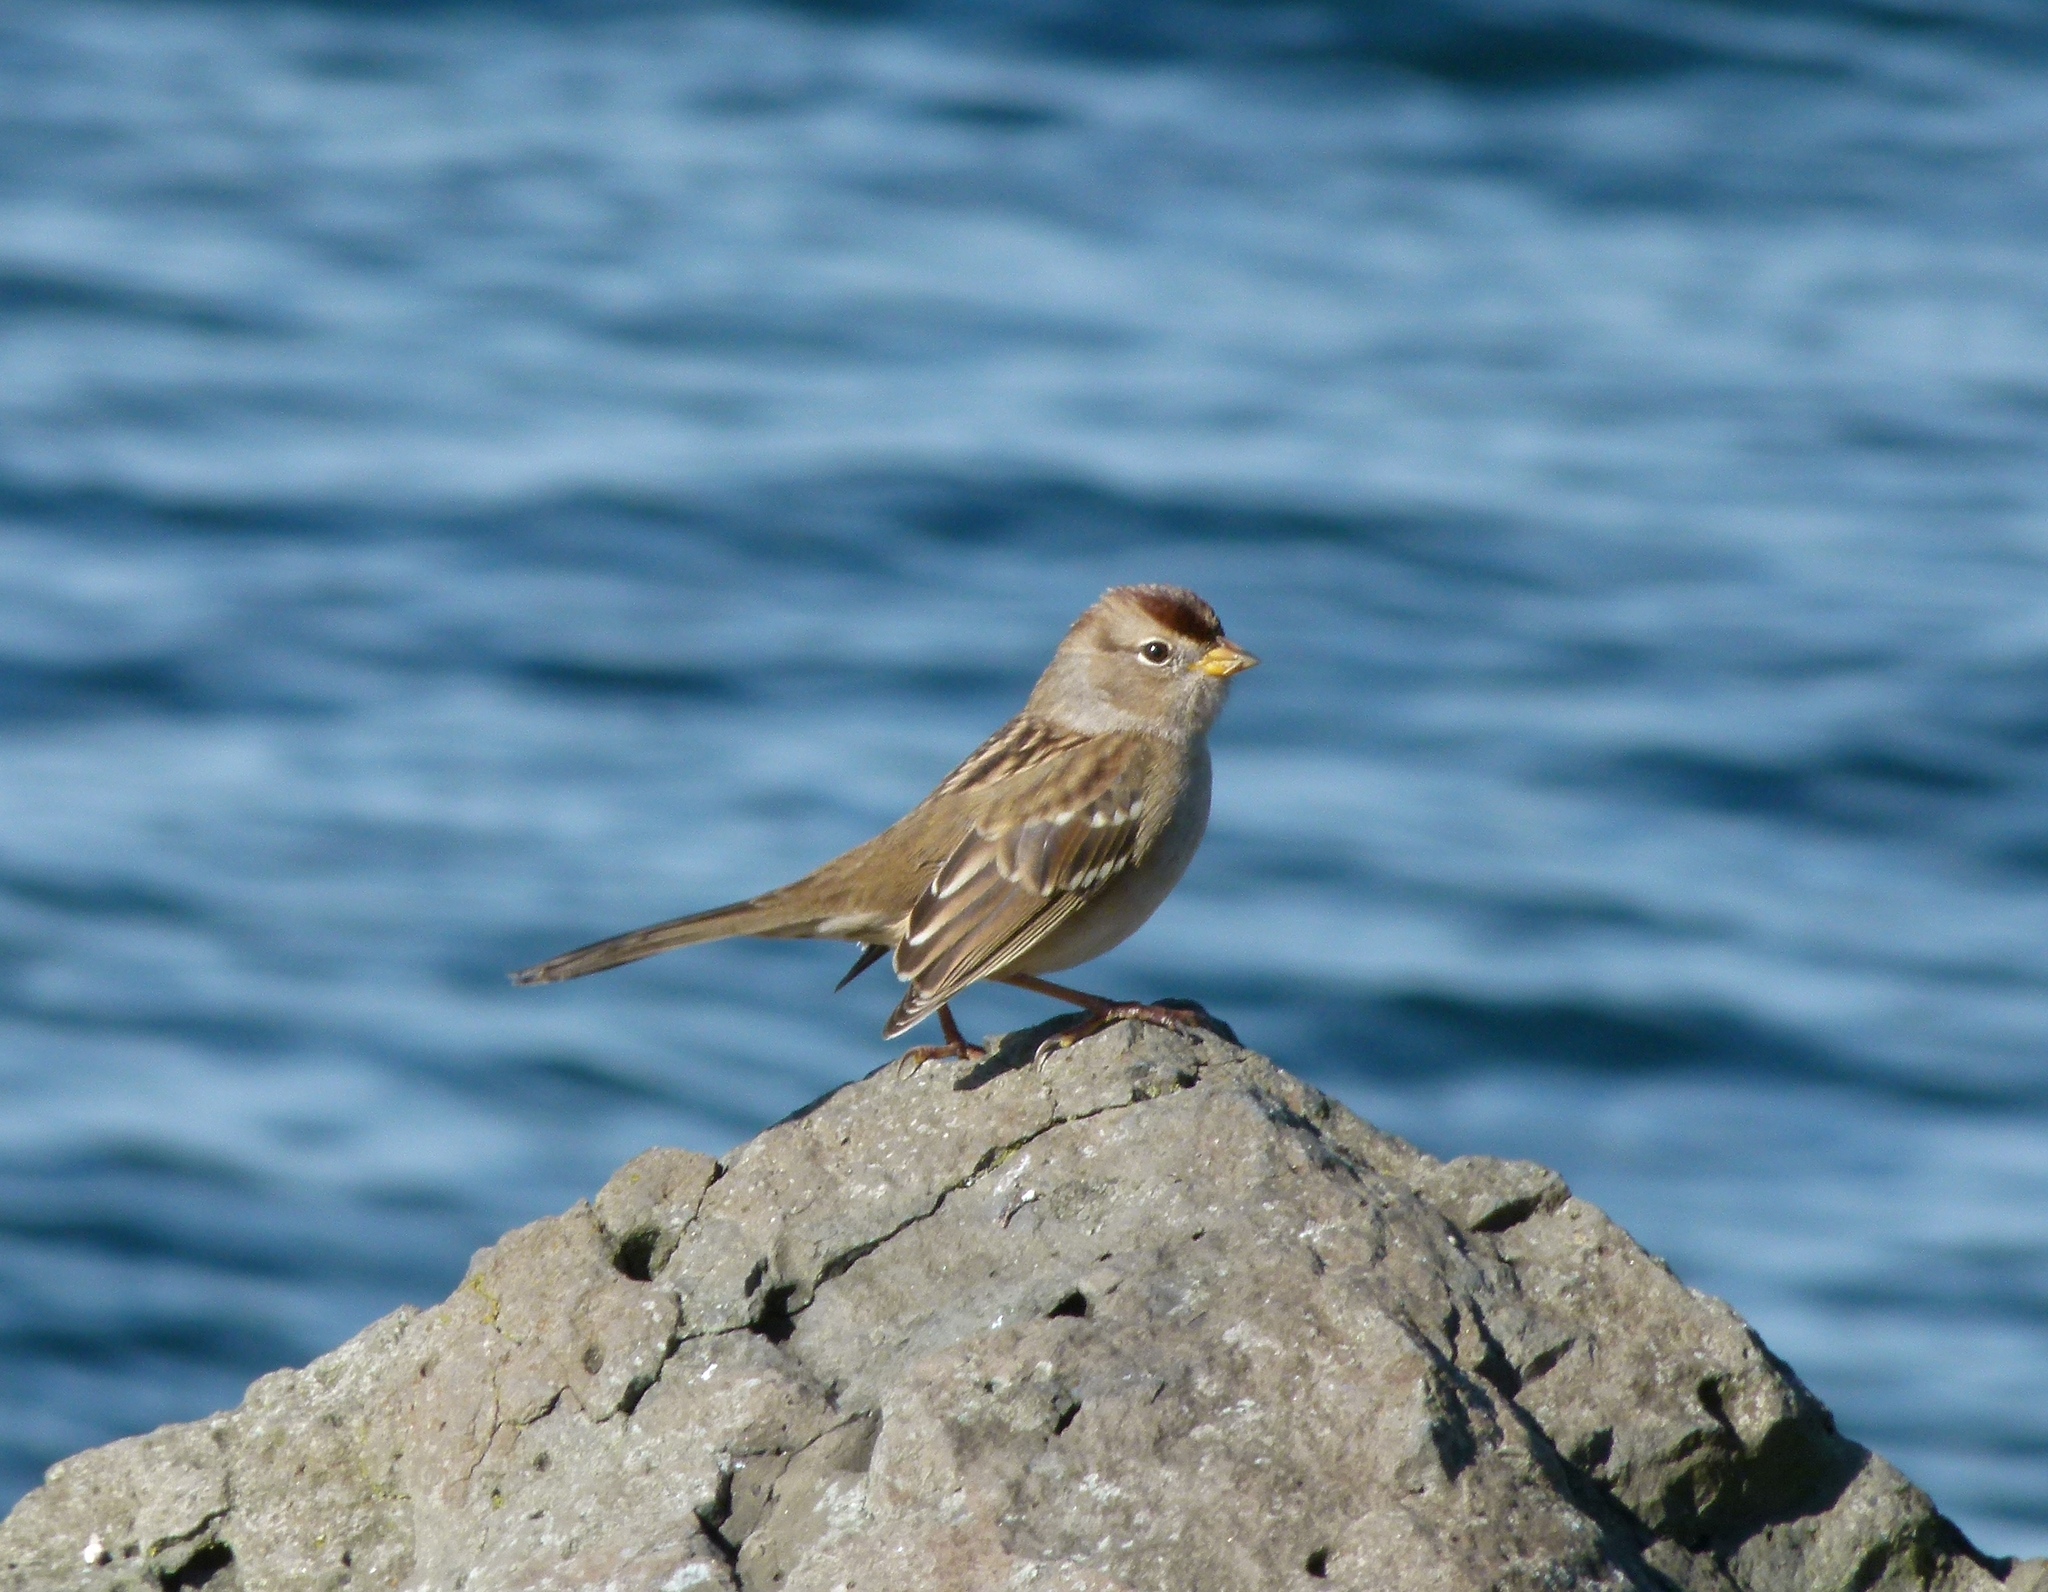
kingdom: Animalia
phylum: Chordata
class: Aves
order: Passeriformes
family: Passerellidae
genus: Zonotrichia
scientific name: Zonotrichia leucophrys
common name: White-crowned sparrow
